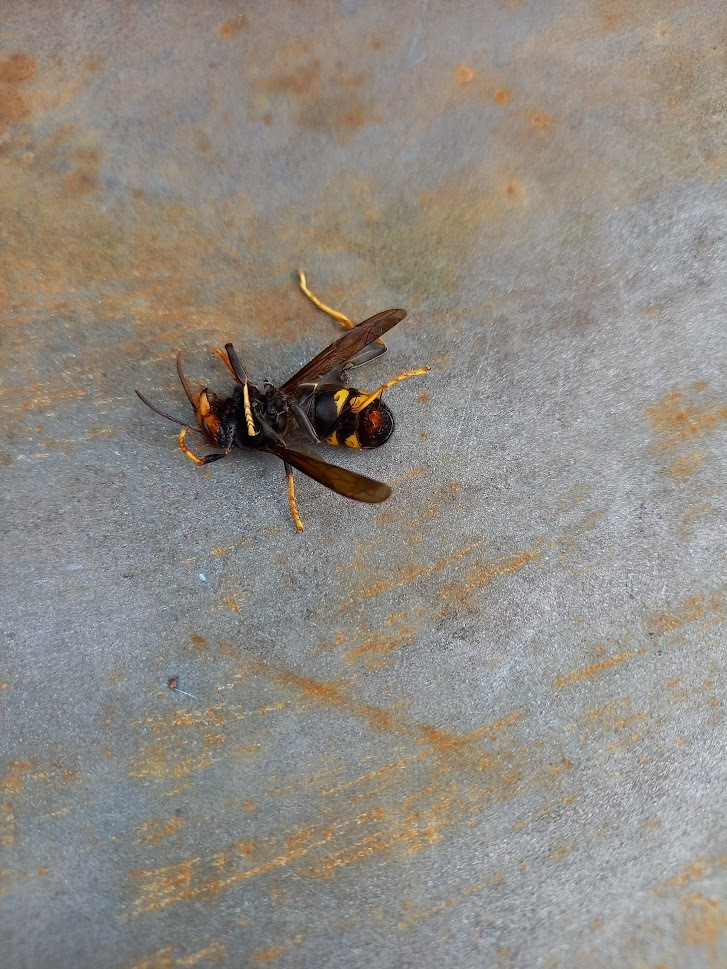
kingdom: Animalia
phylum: Arthropoda
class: Insecta
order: Hymenoptera
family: Vespidae
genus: Vespa
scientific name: Vespa velutina
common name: Asian hornet
